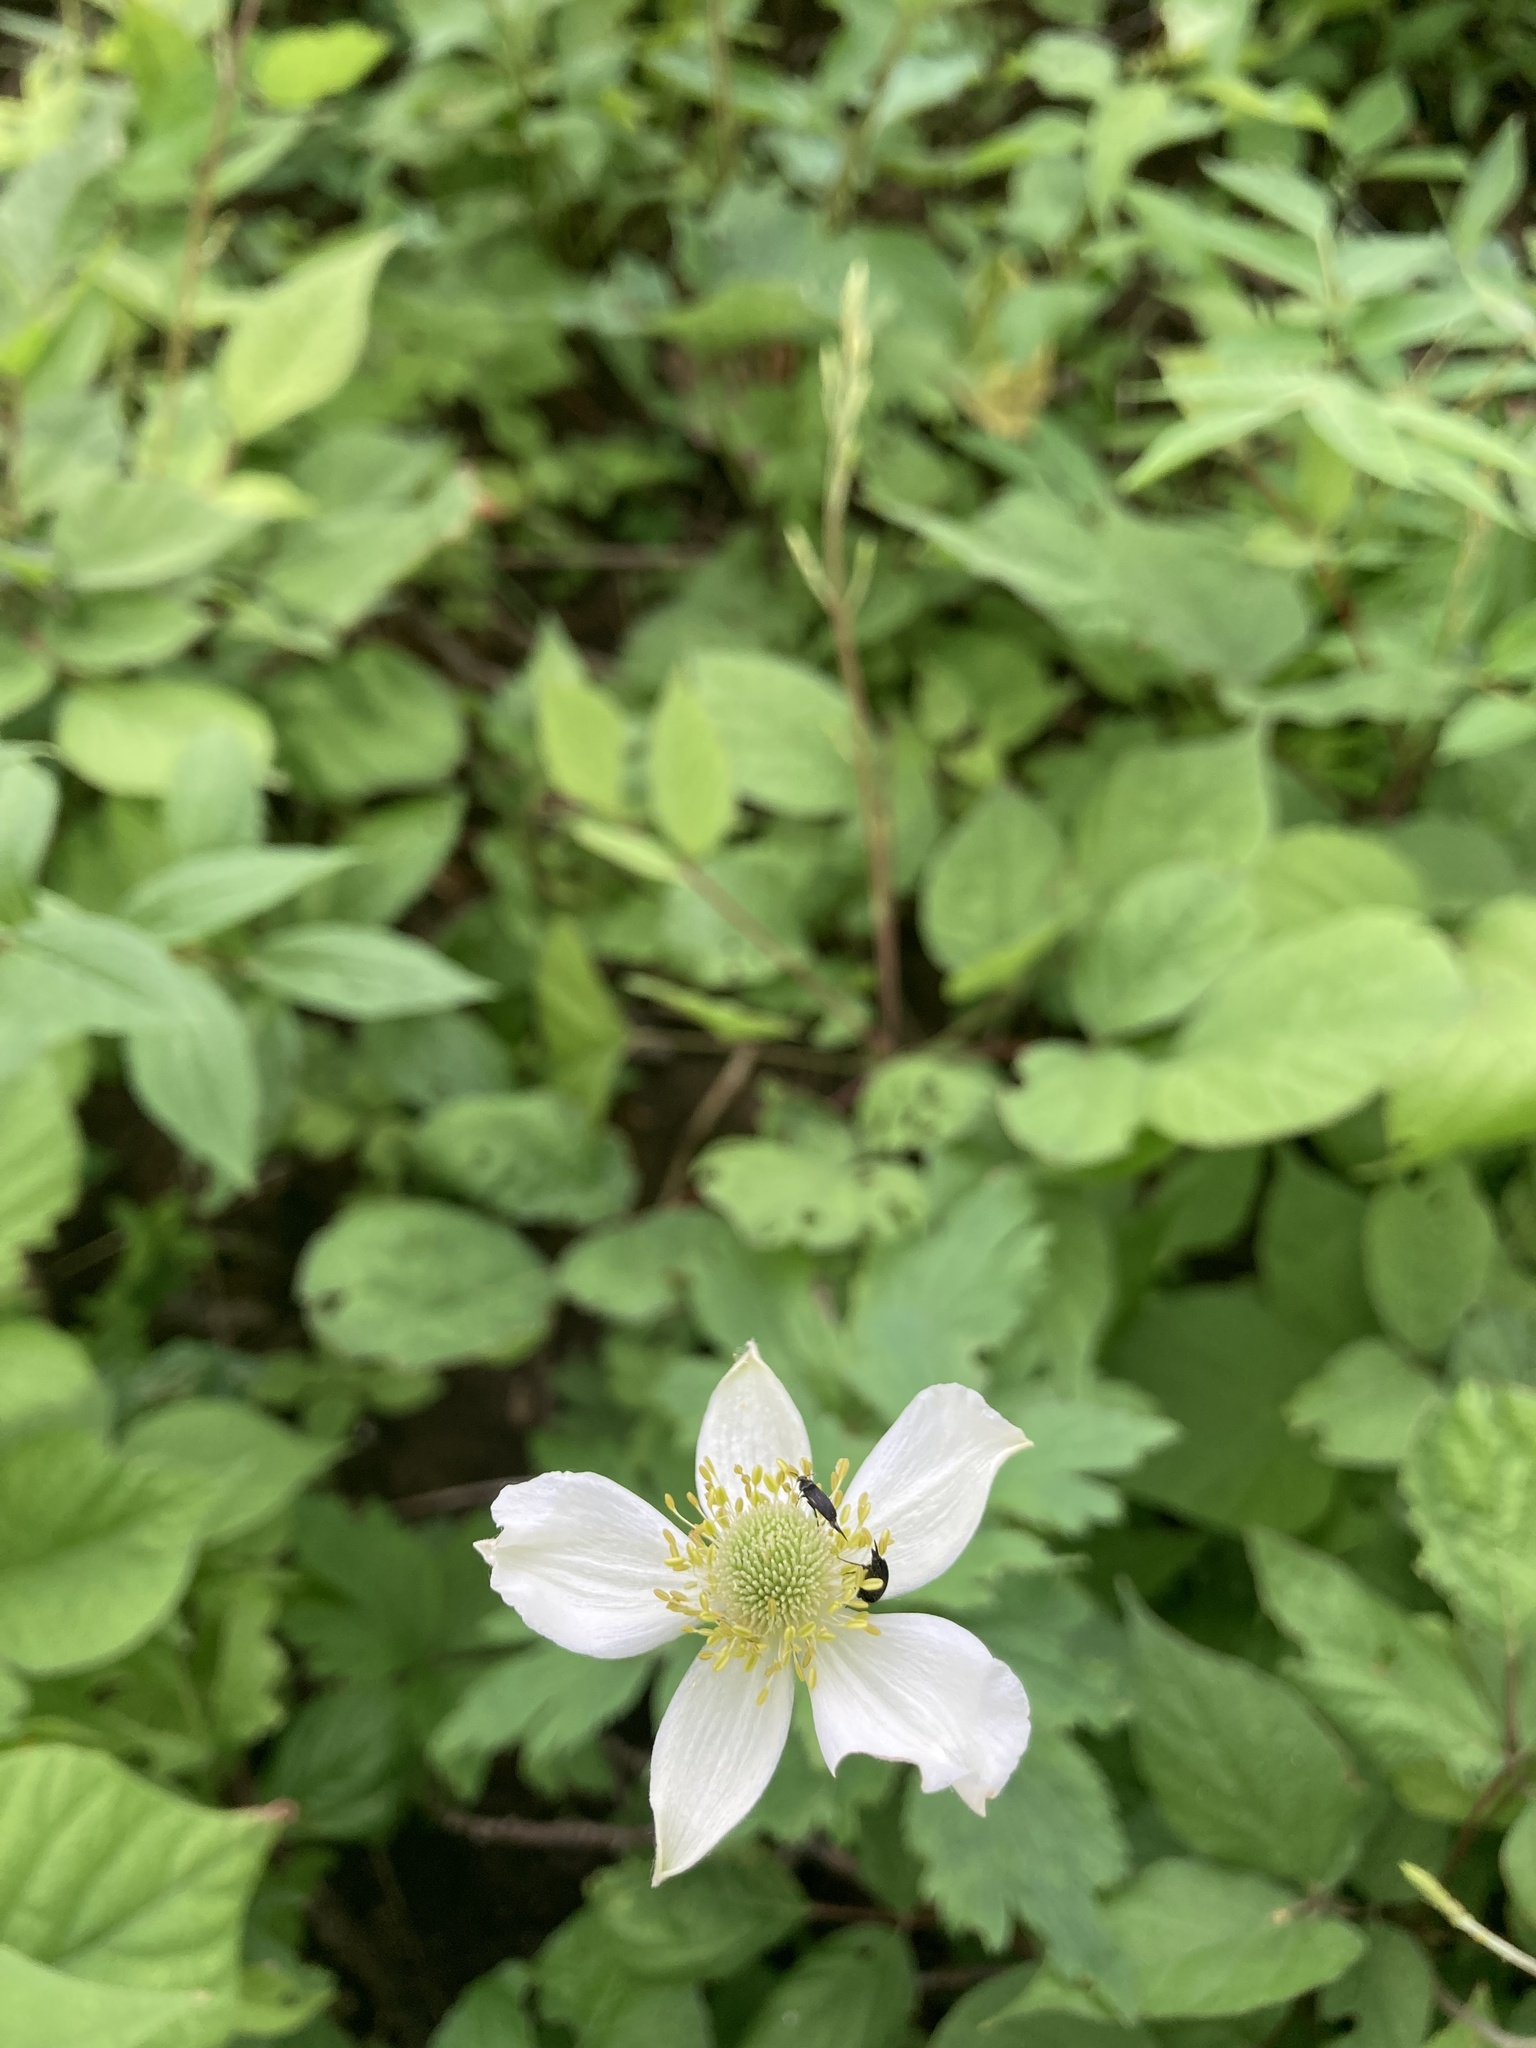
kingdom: Plantae
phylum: Tracheophyta
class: Magnoliopsida
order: Ranunculales
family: Ranunculaceae
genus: Anemone
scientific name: Anemone virginiana
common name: Tall anemone
